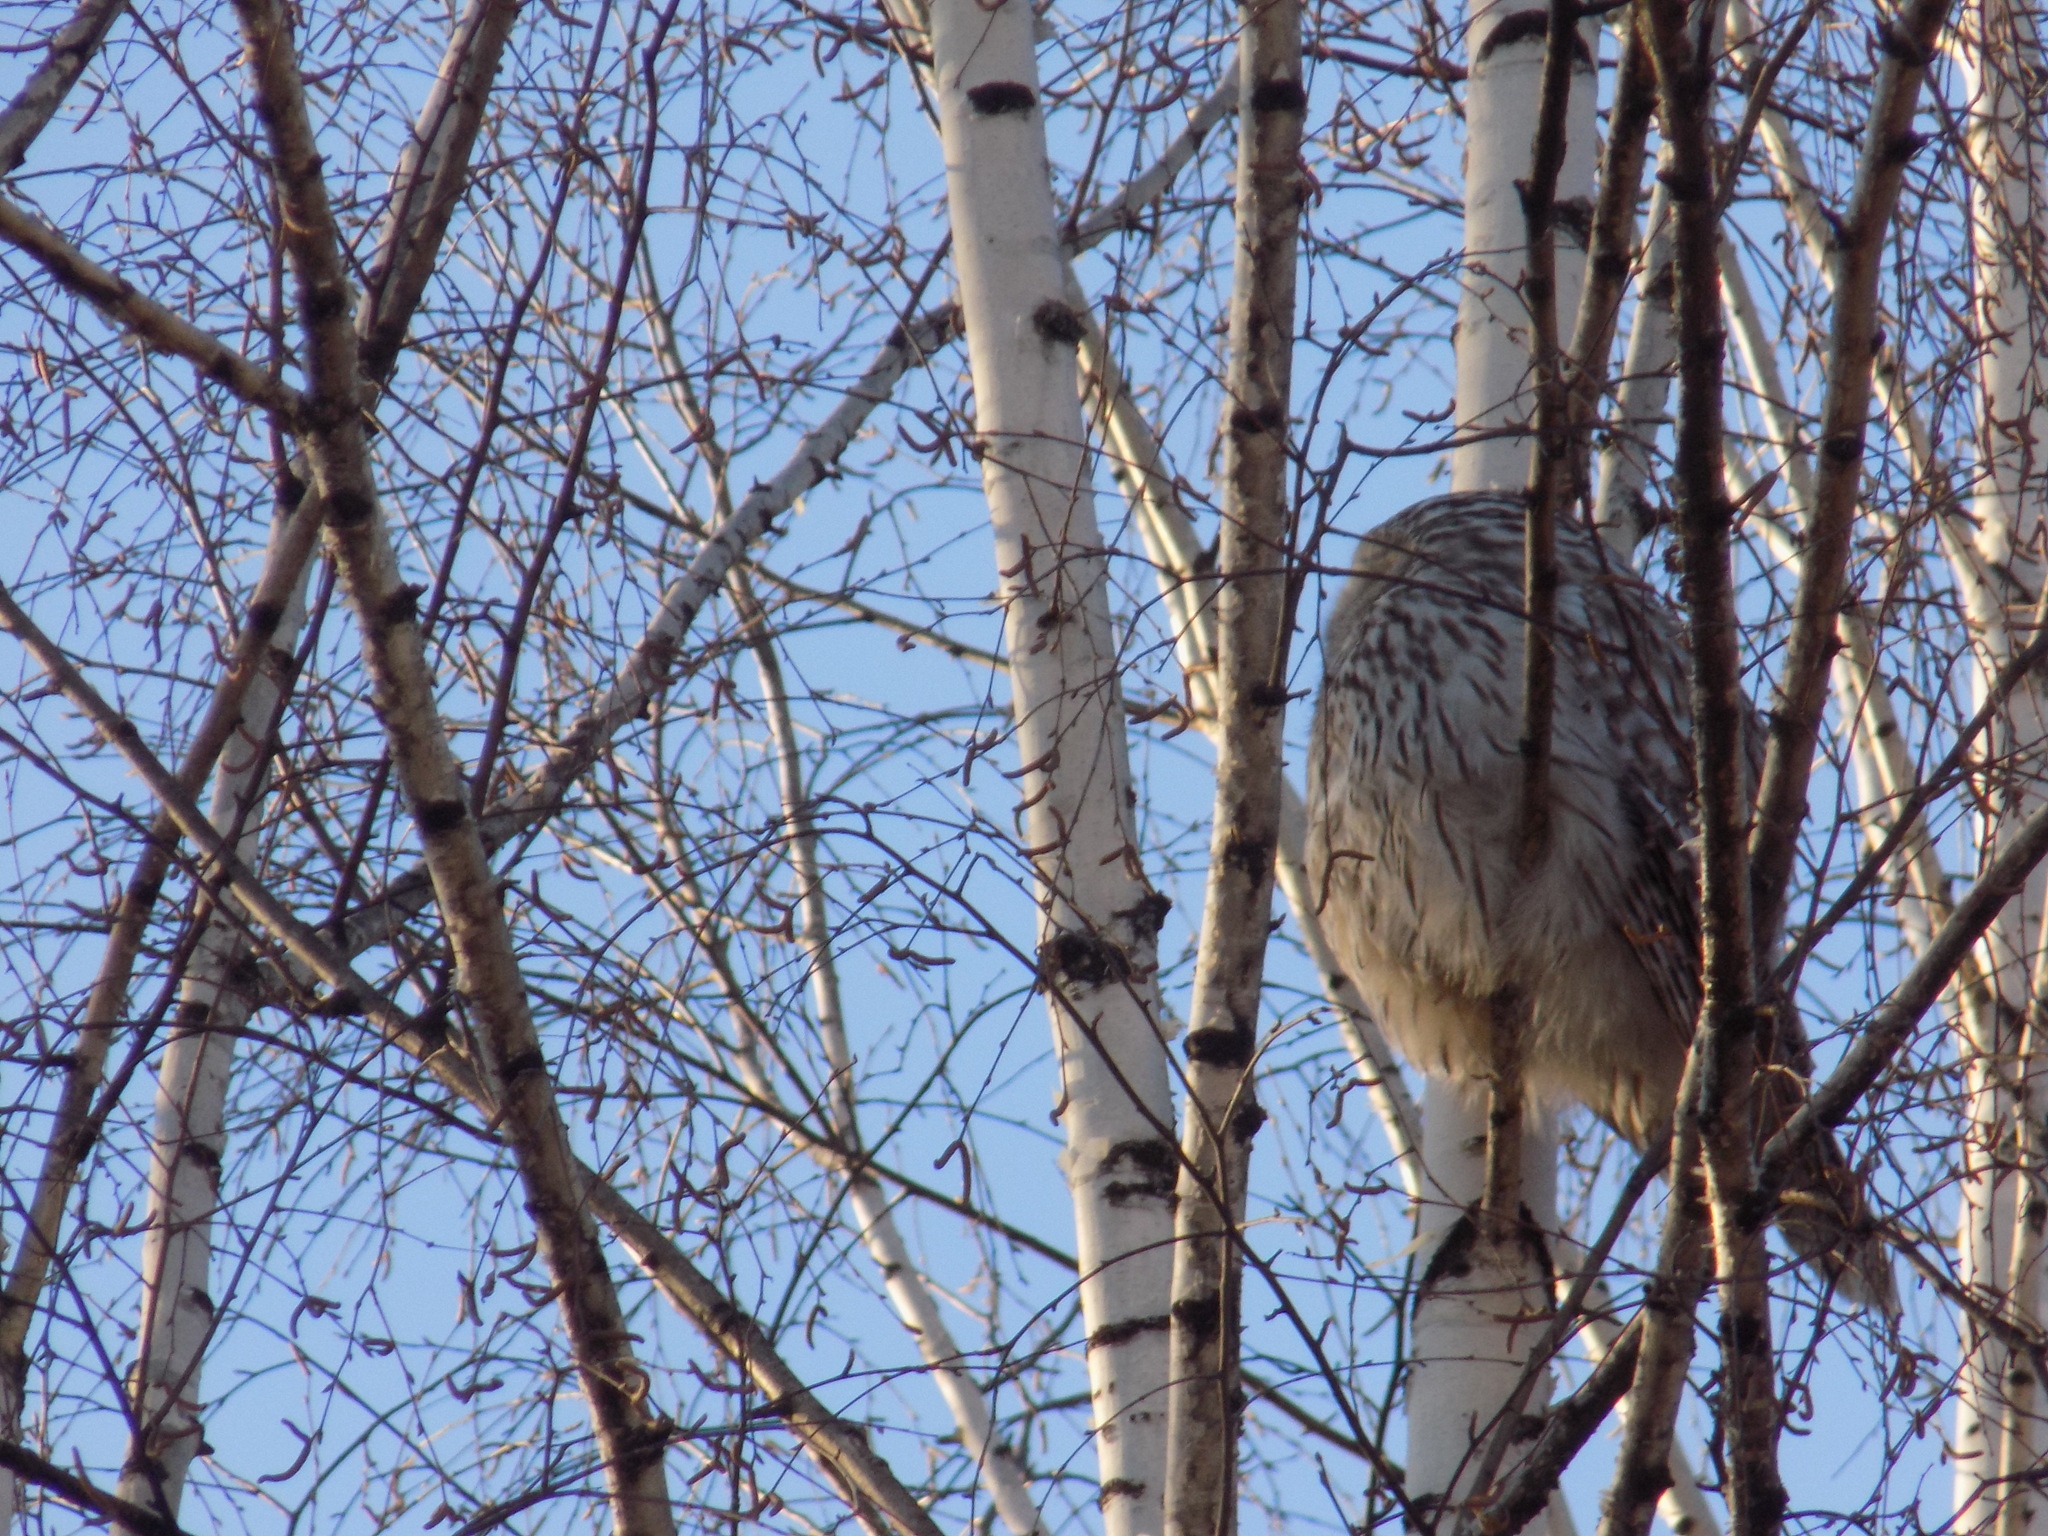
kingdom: Animalia
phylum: Chordata
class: Aves
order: Strigiformes
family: Strigidae
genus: Strix
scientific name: Strix uralensis
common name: Ural owl
